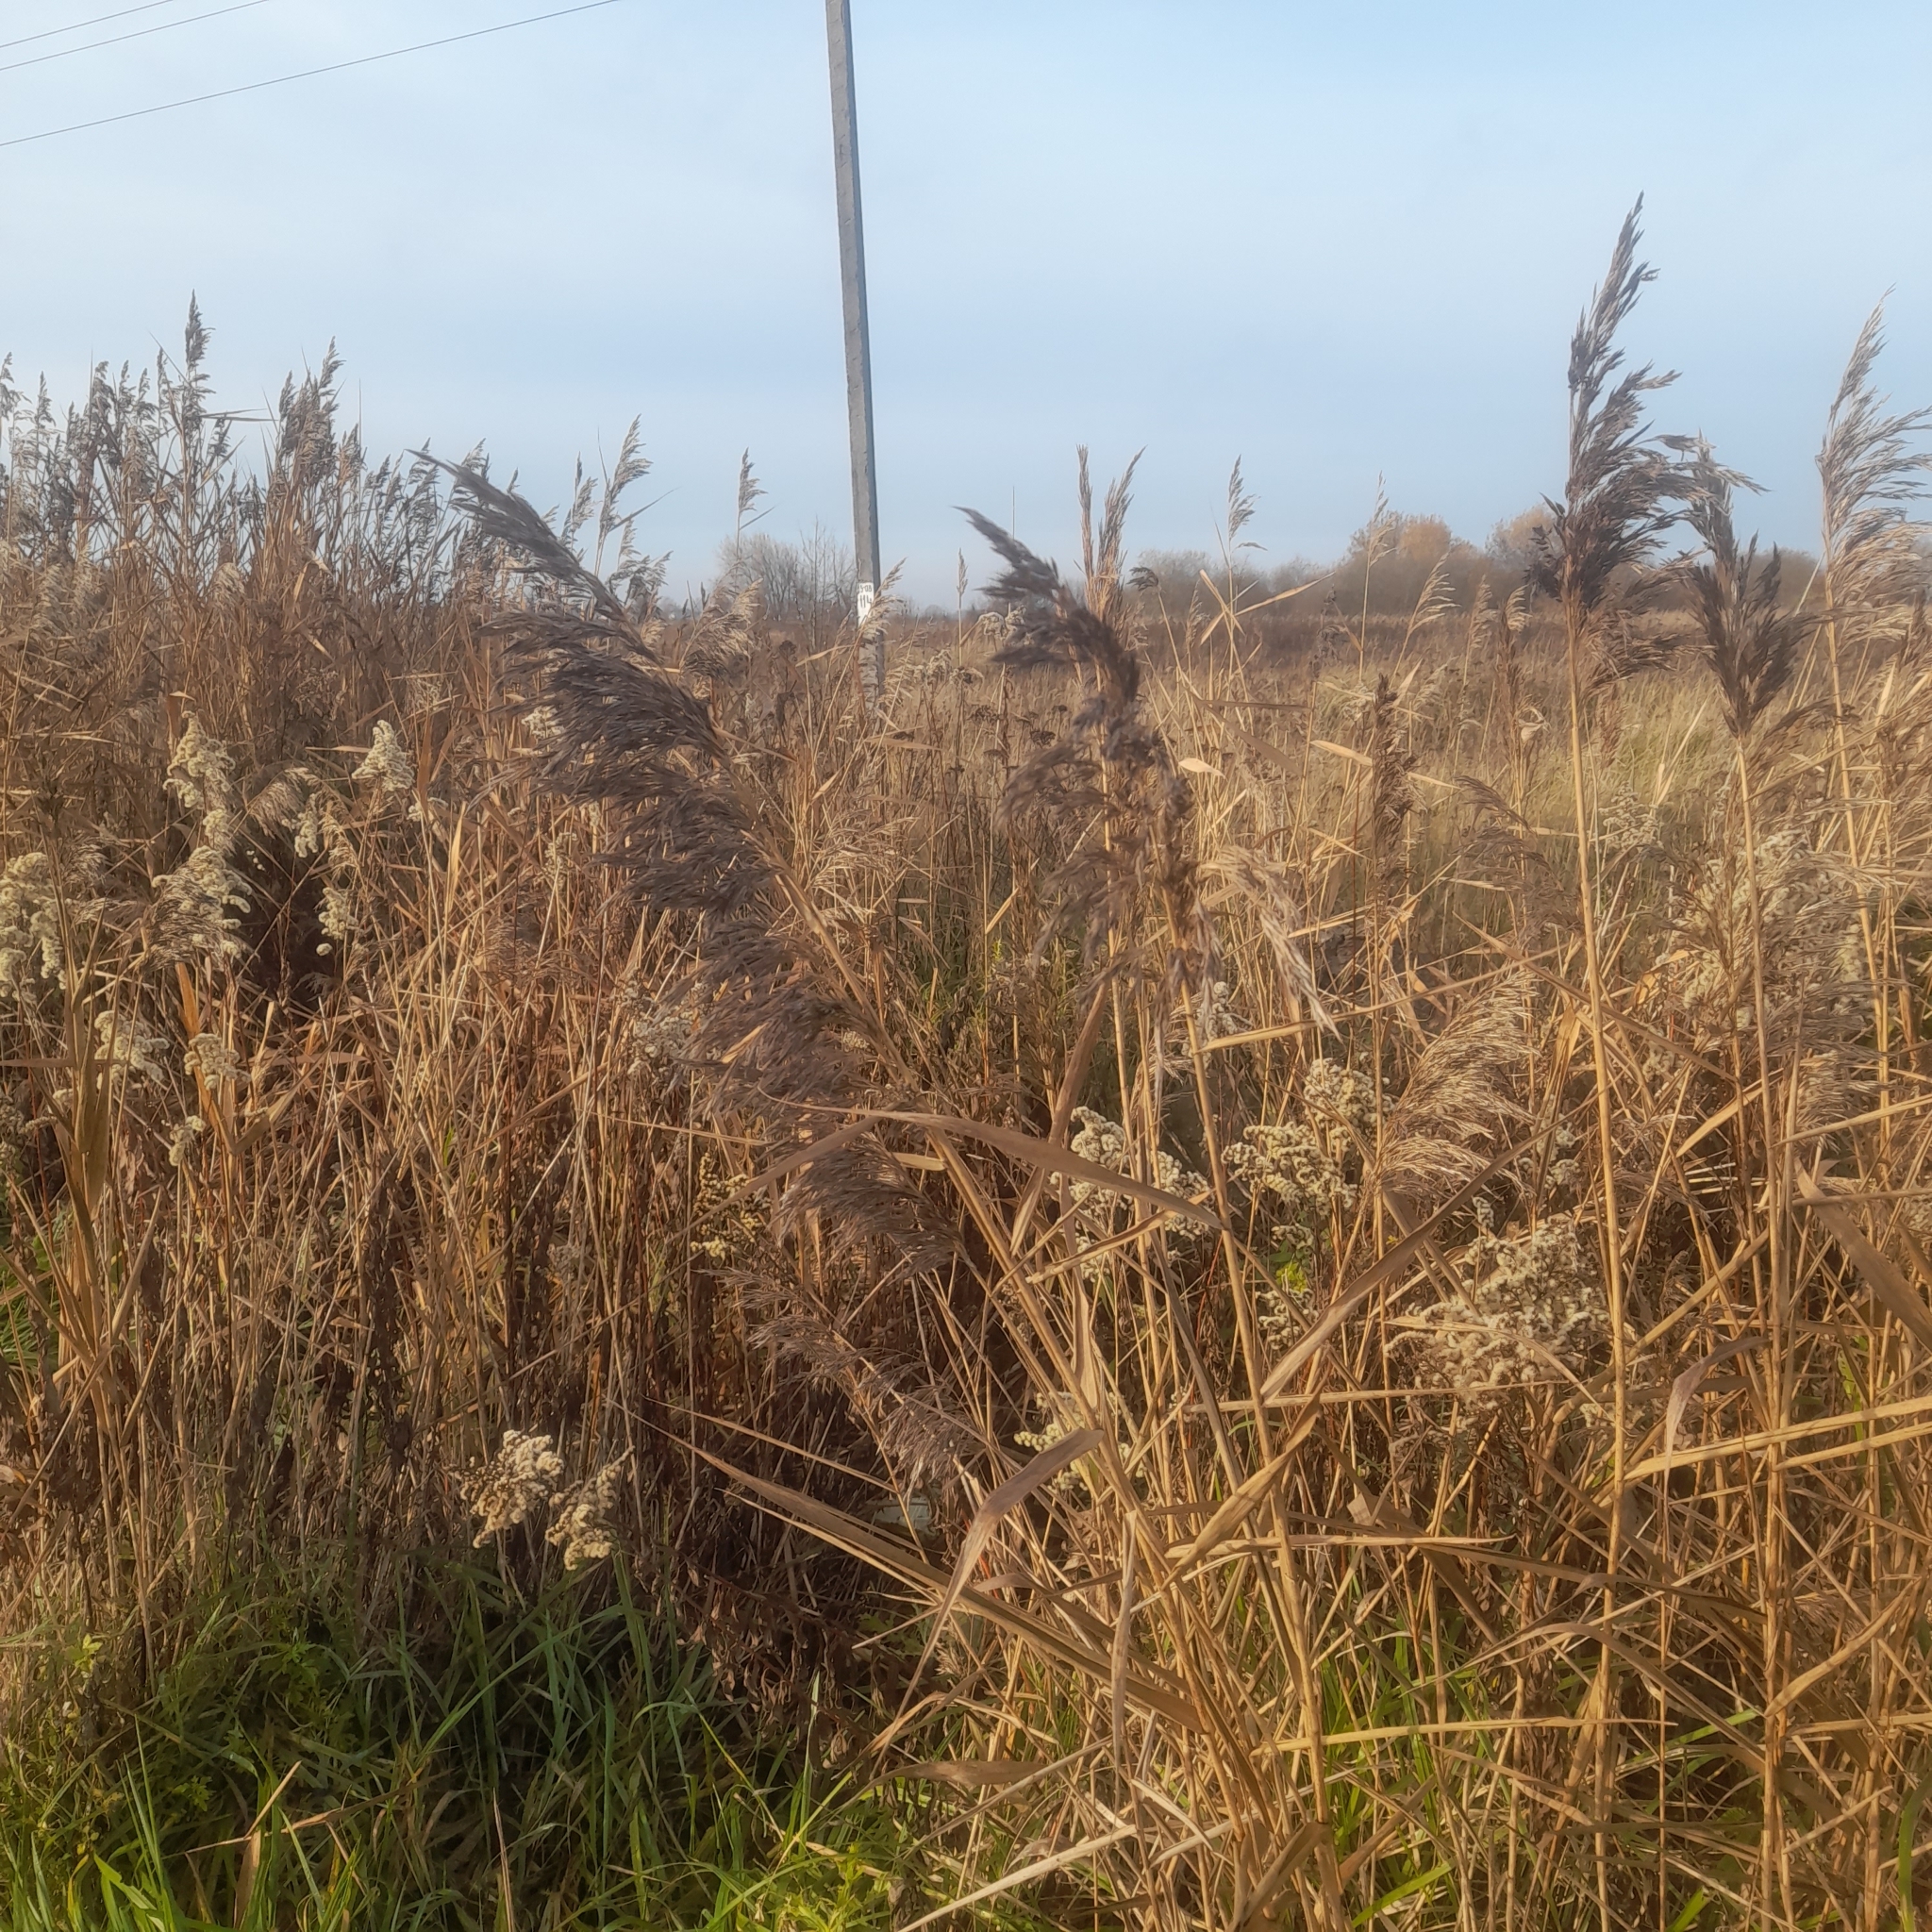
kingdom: Plantae
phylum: Tracheophyta
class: Liliopsida
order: Poales
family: Poaceae
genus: Phragmites
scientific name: Phragmites australis
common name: Common reed
